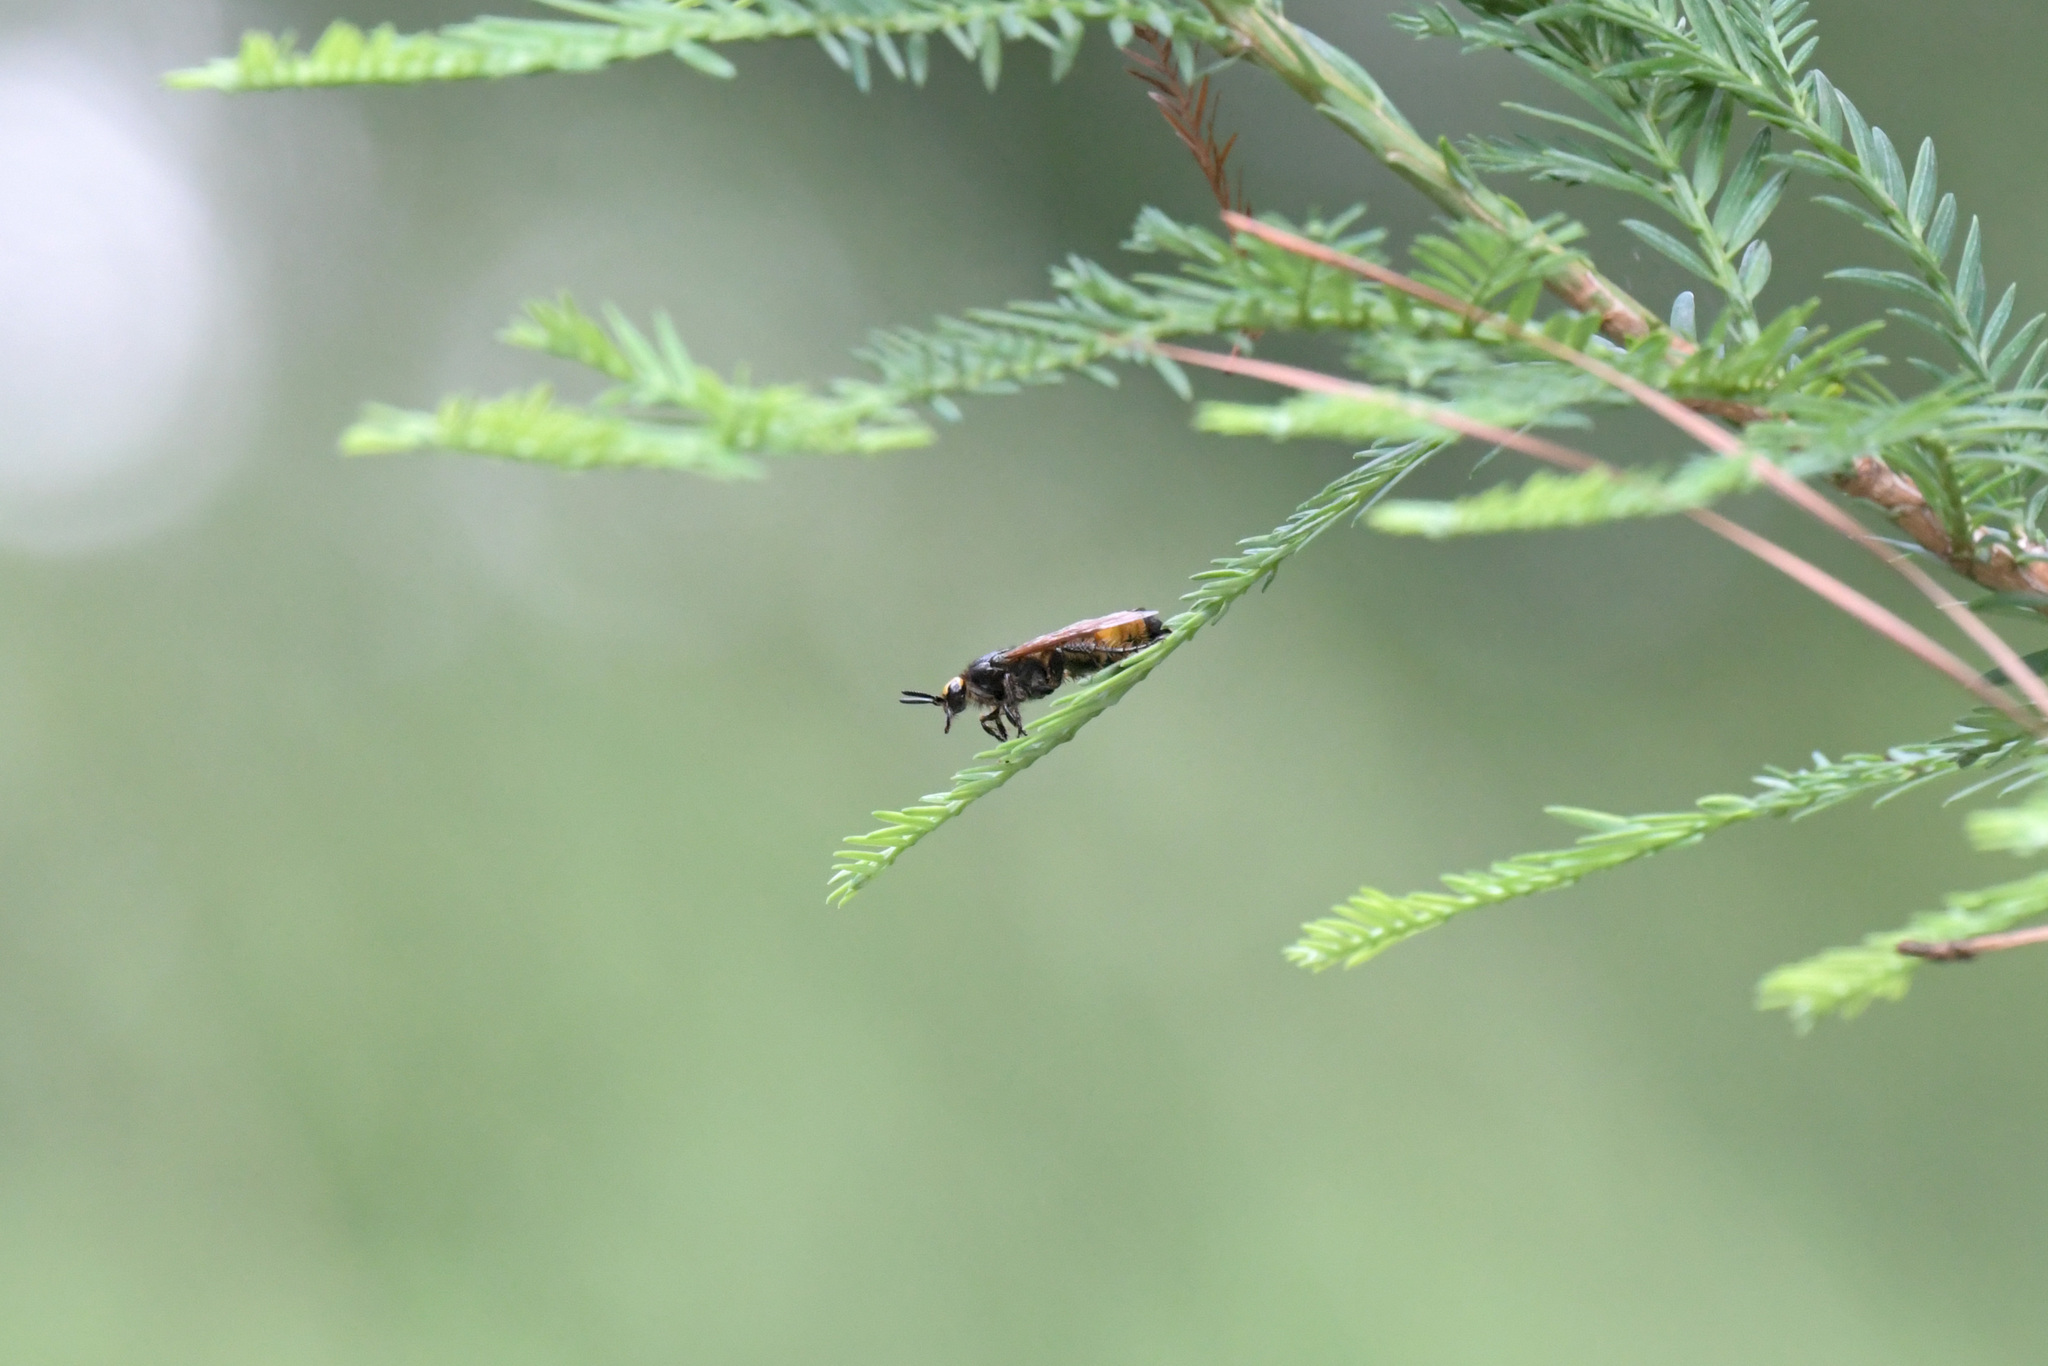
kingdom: Animalia
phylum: Arthropoda
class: Insecta
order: Hymenoptera
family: Scoliidae
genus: Scolia
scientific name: Scolia watanabei
